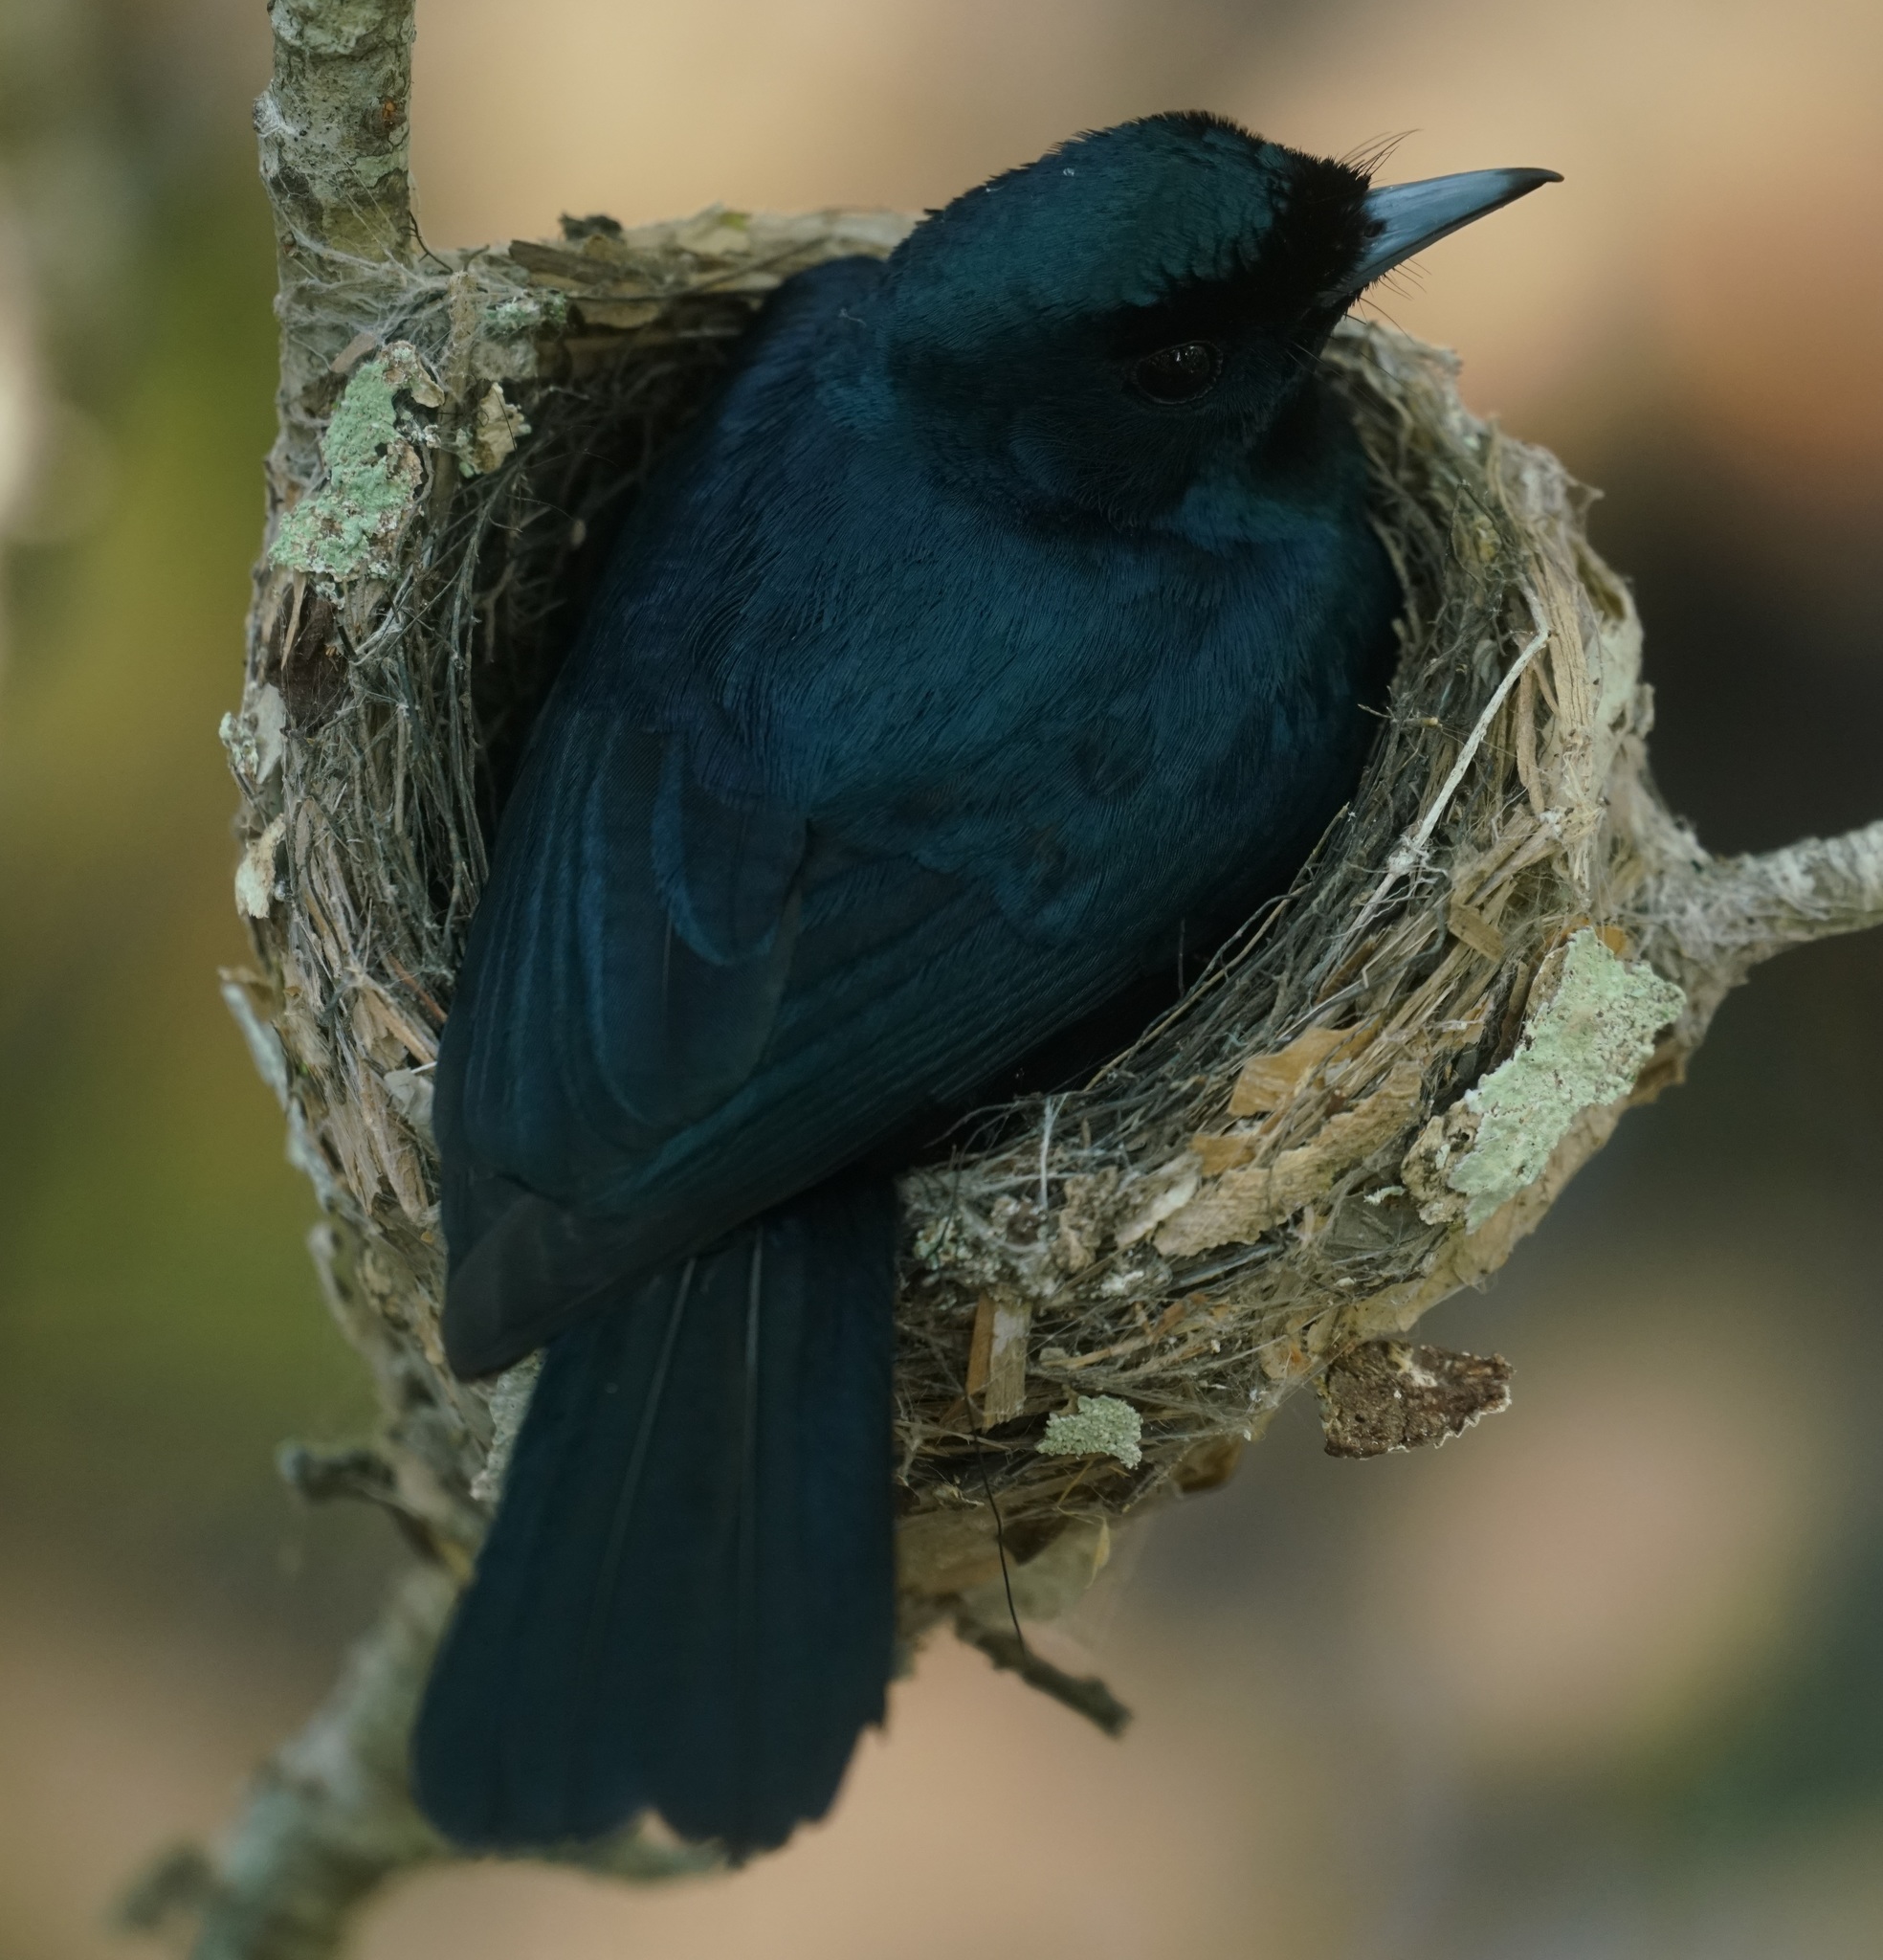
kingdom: Animalia
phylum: Chordata
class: Aves
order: Passeriformes
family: Monarchidae
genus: Myiagra
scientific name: Myiagra alecto
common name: Shining flycatcher
